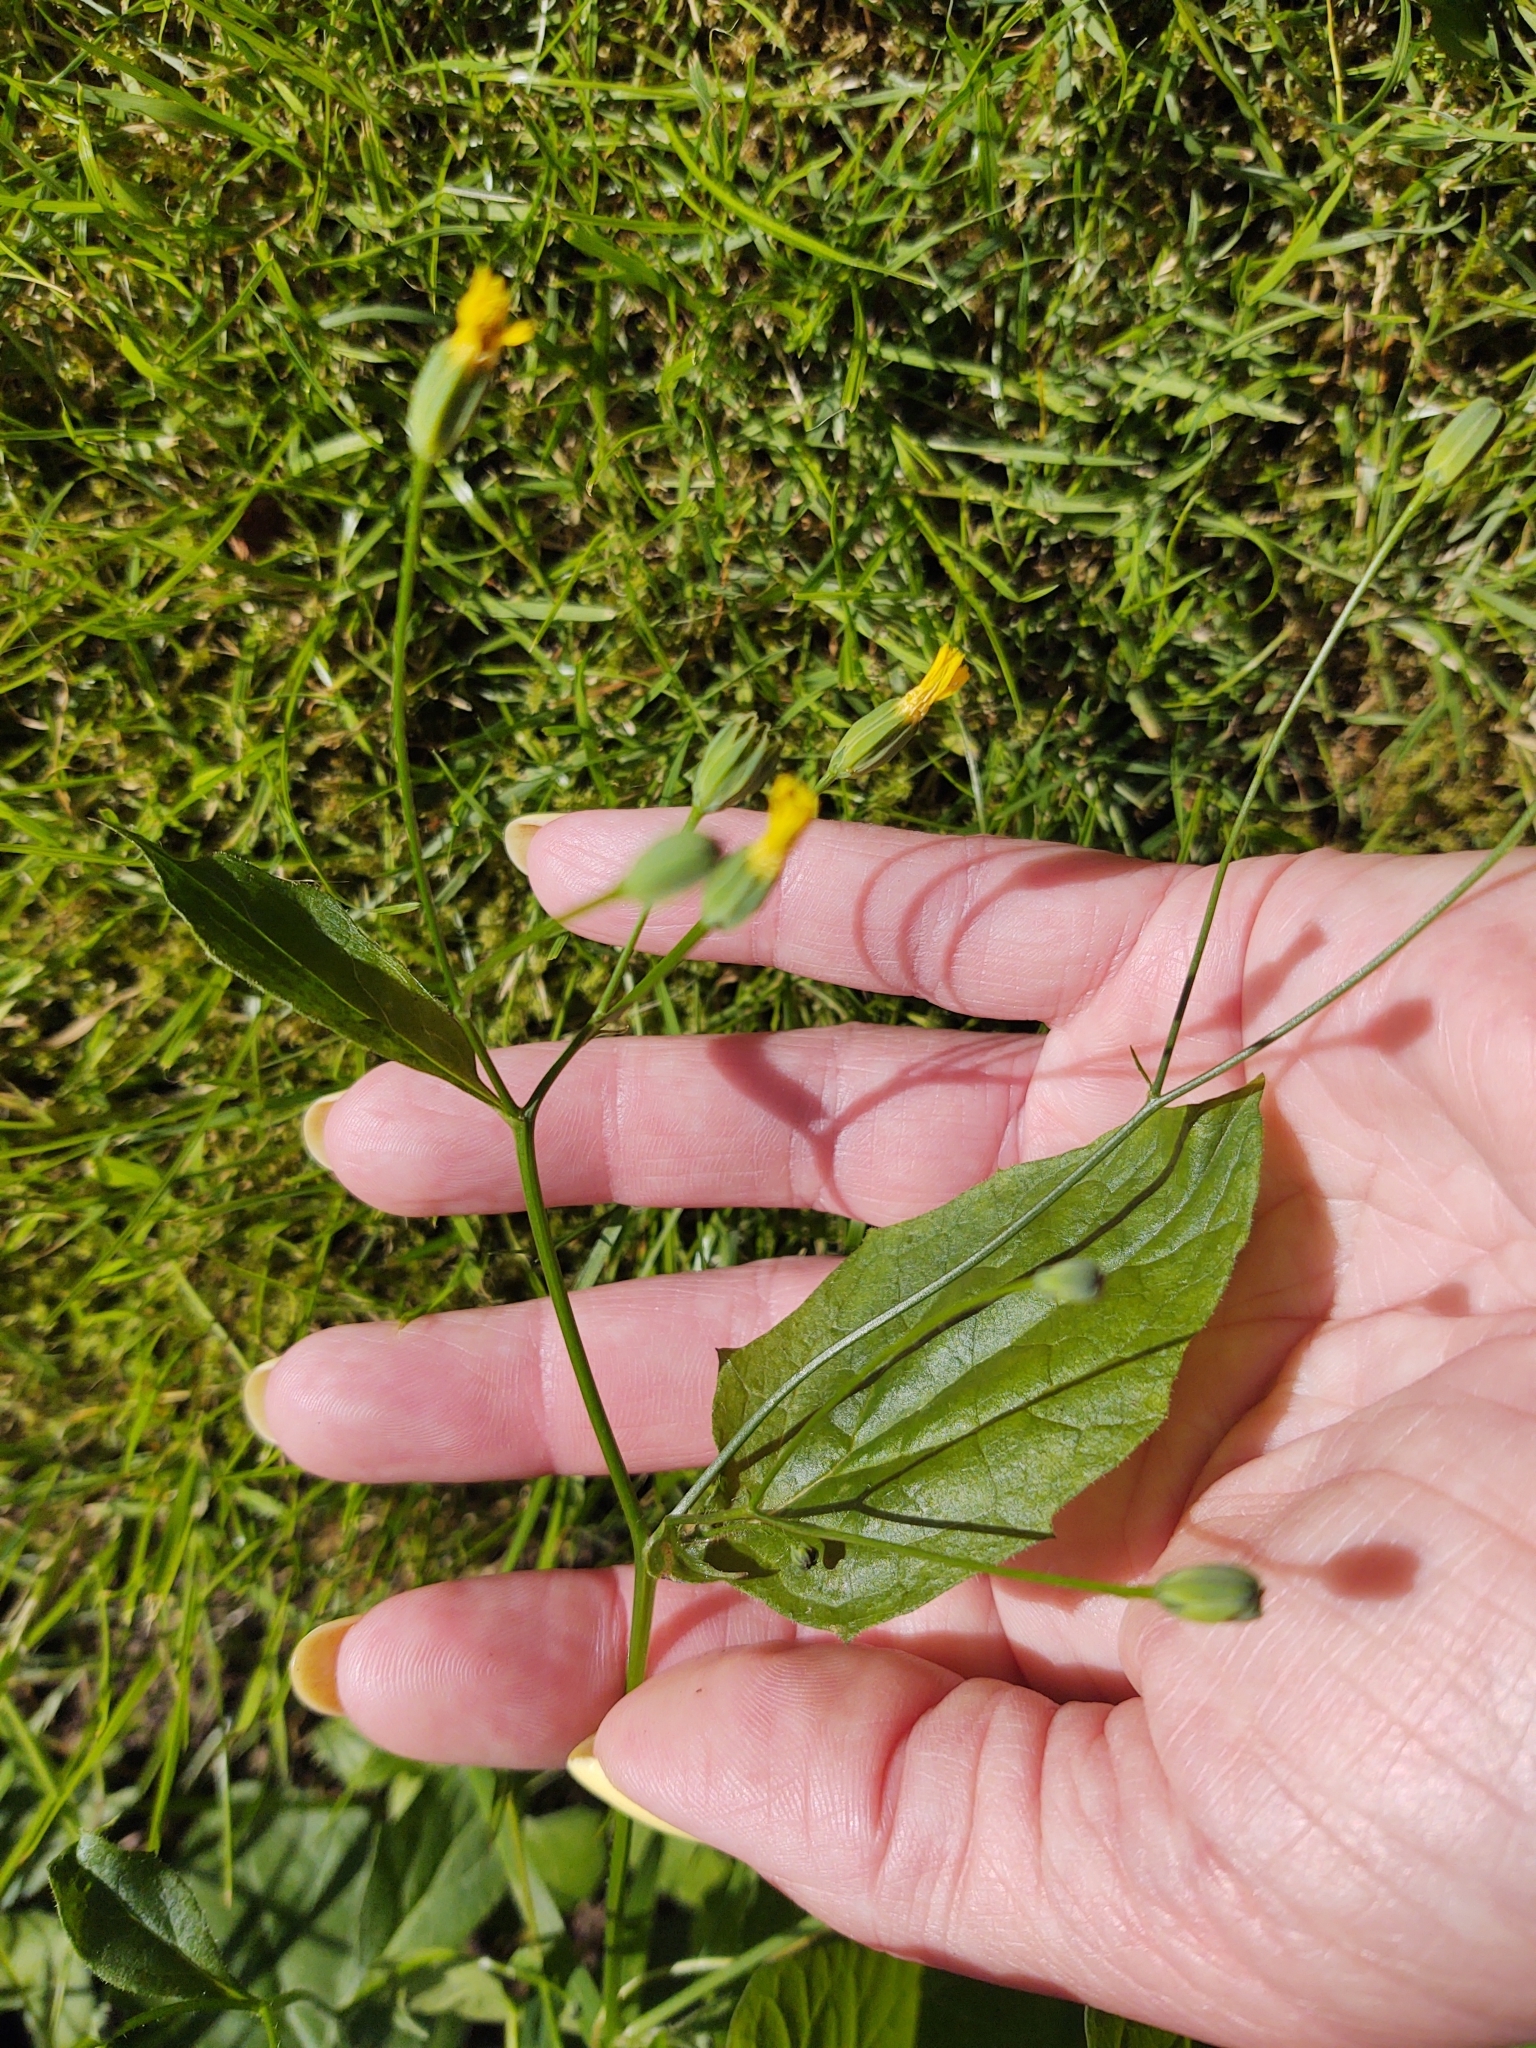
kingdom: Plantae
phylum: Tracheophyta
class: Magnoliopsida
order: Asterales
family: Asteraceae
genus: Lapsana
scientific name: Lapsana communis
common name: Nipplewort
